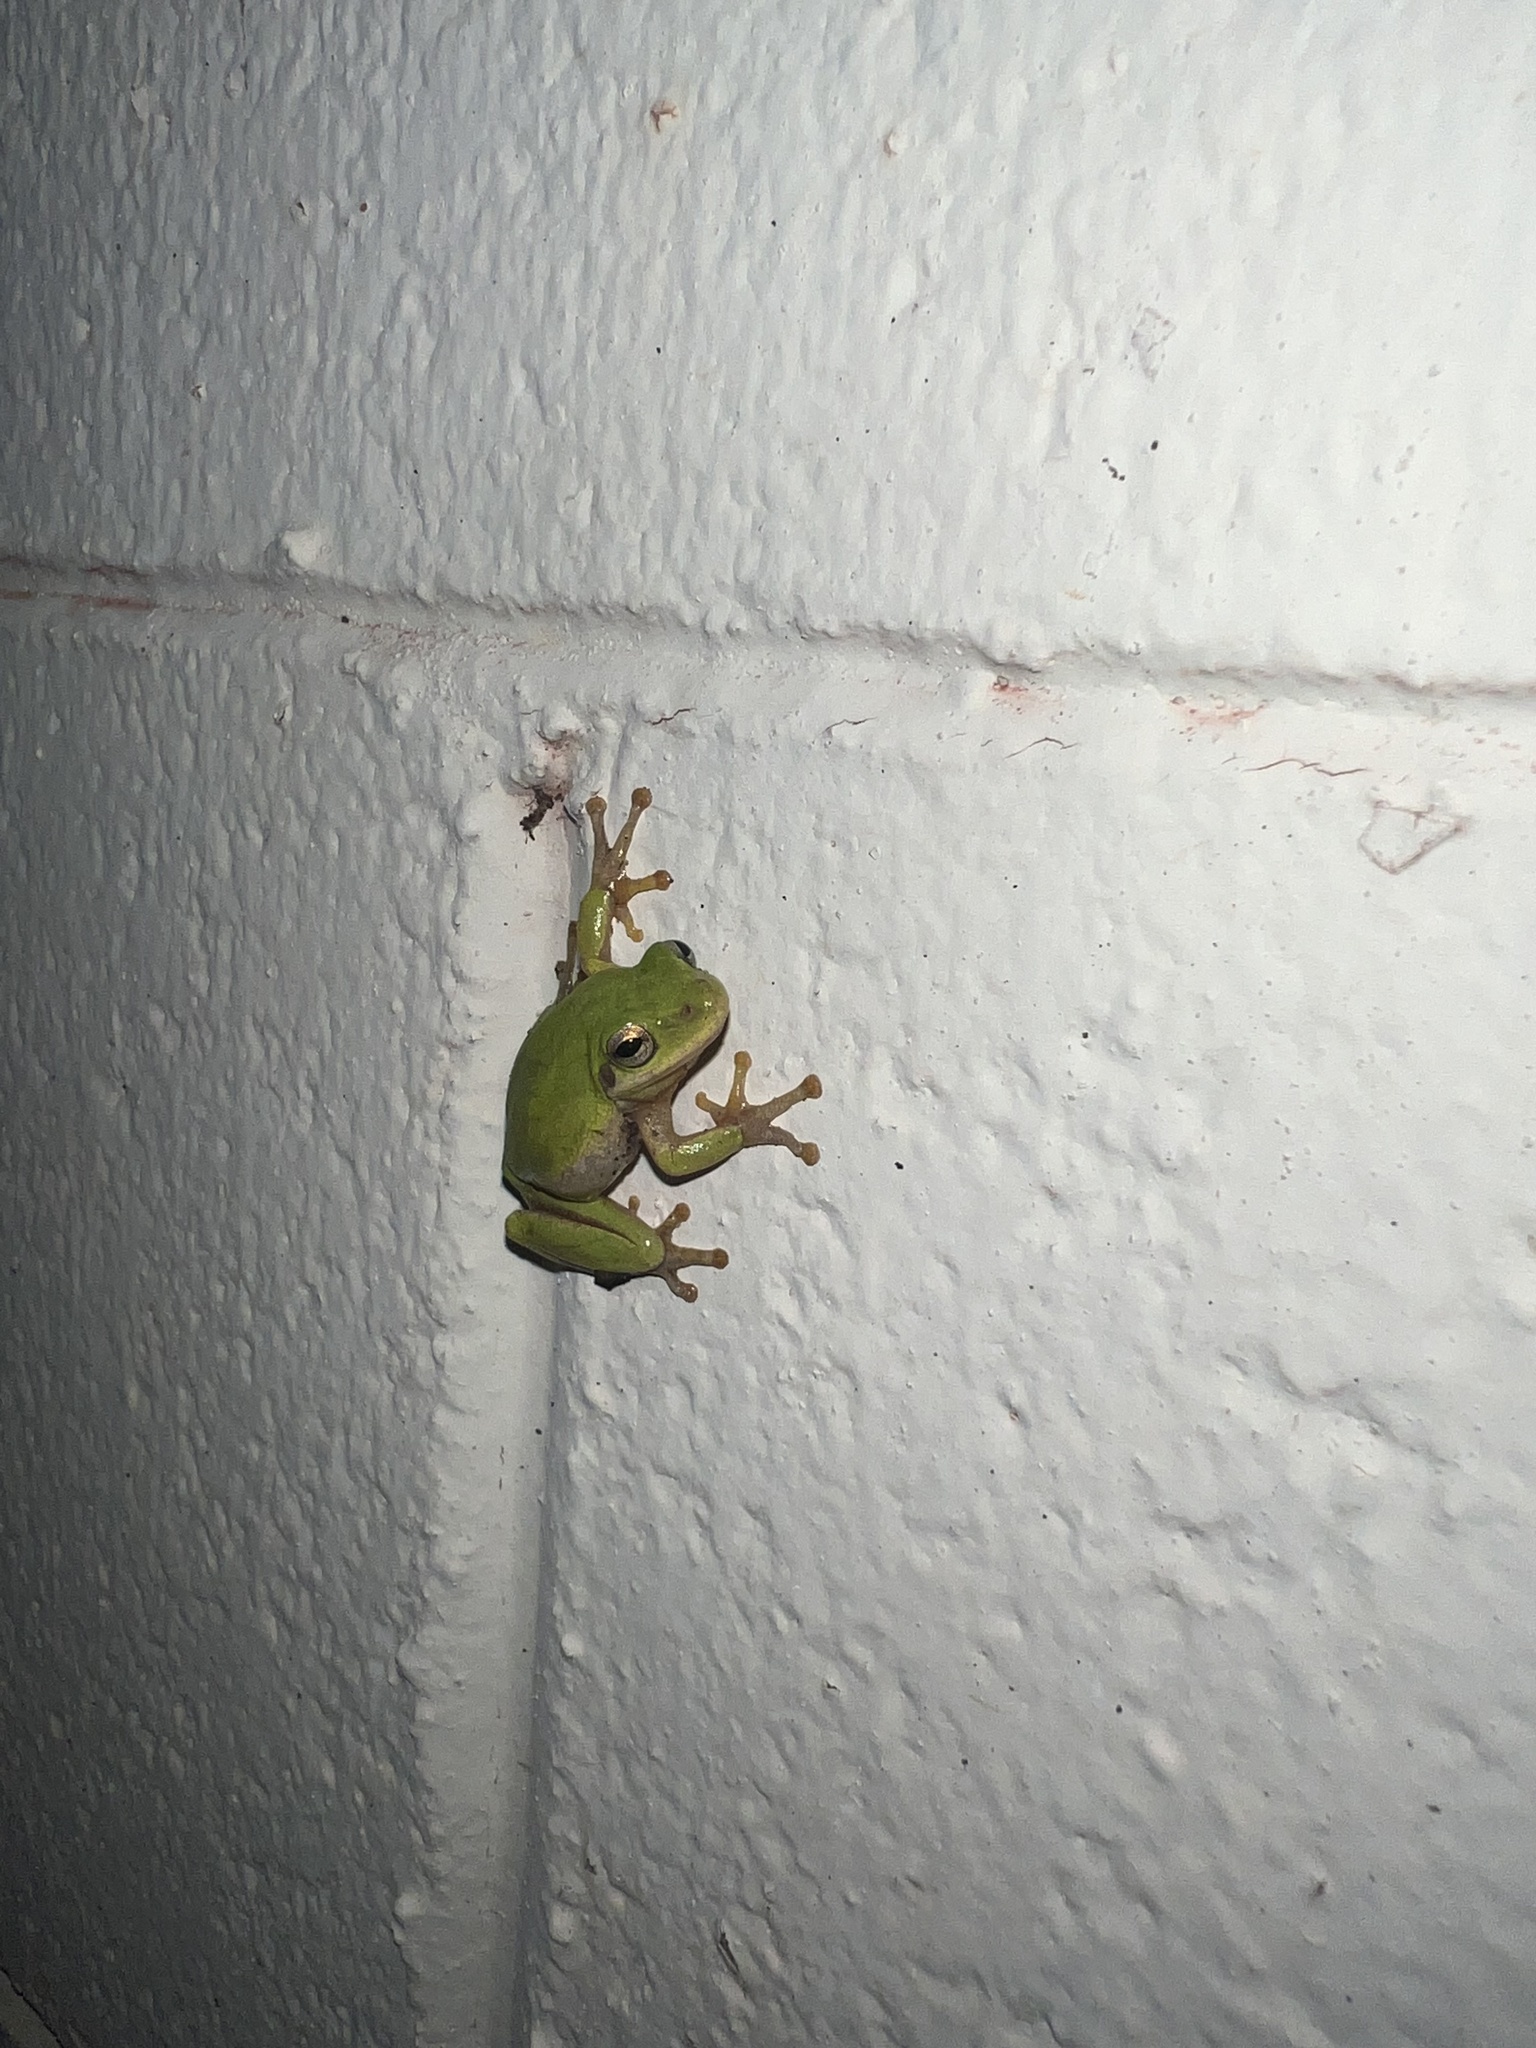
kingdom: Animalia
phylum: Chordata
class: Amphibia
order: Anura
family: Hylidae
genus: Dryophytes
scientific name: Dryophytes squirellus
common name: Squirrel treefrog
